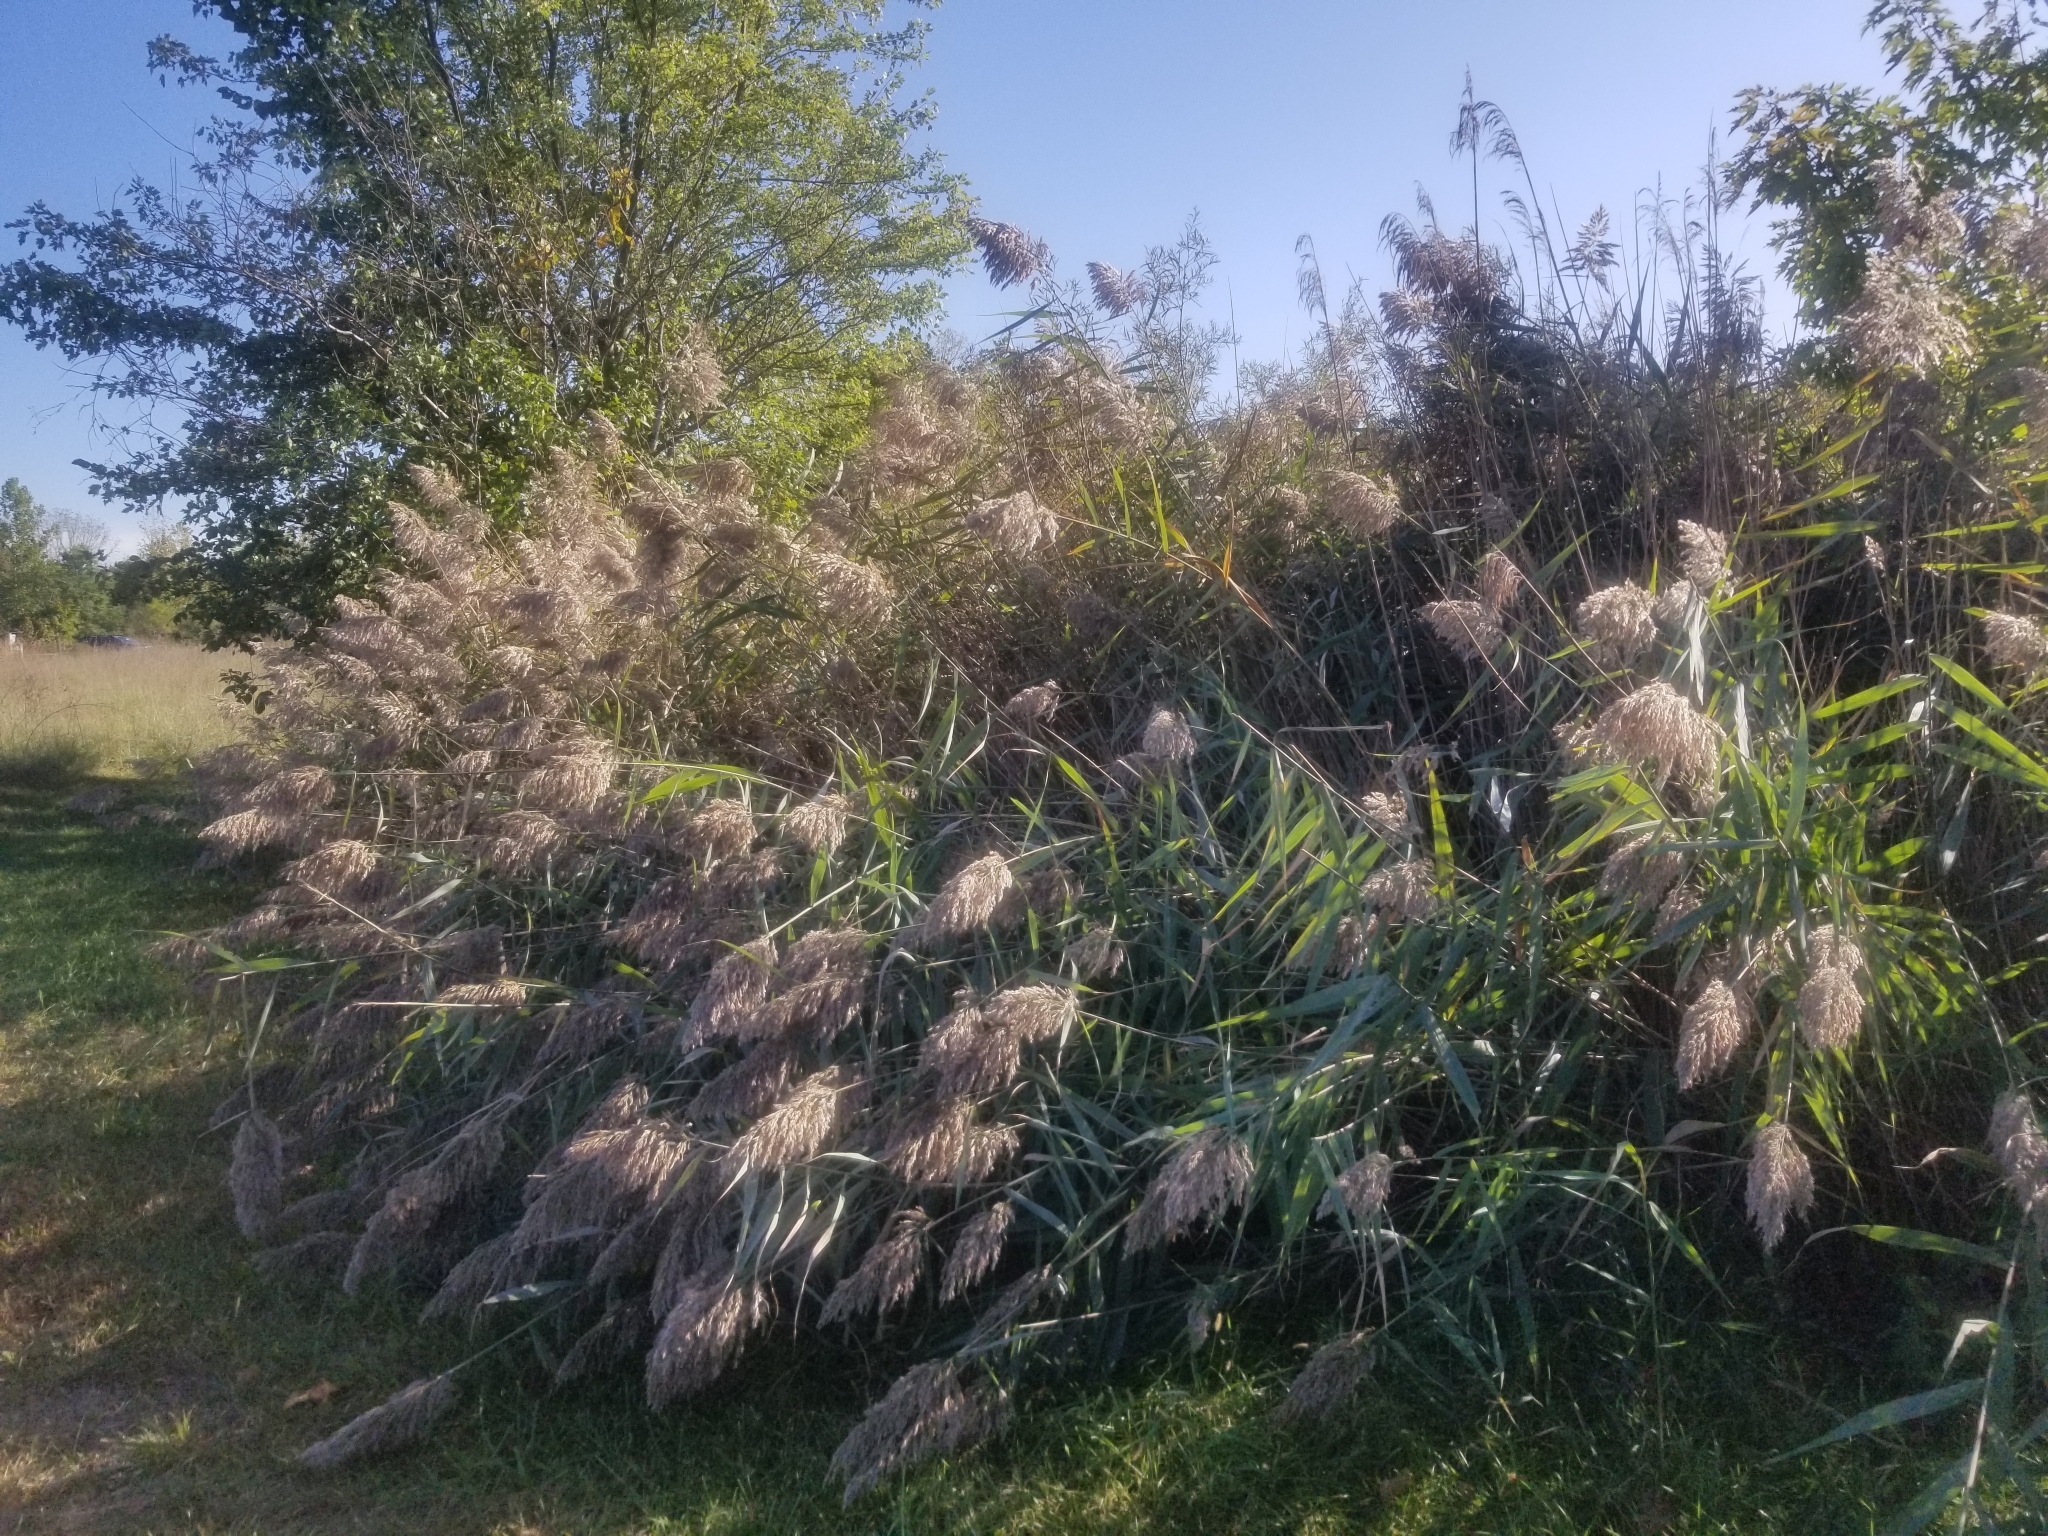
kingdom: Plantae
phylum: Tracheophyta
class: Liliopsida
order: Poales
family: Poaceae
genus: Phragmites
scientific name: Phragmites australis
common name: Common reed
